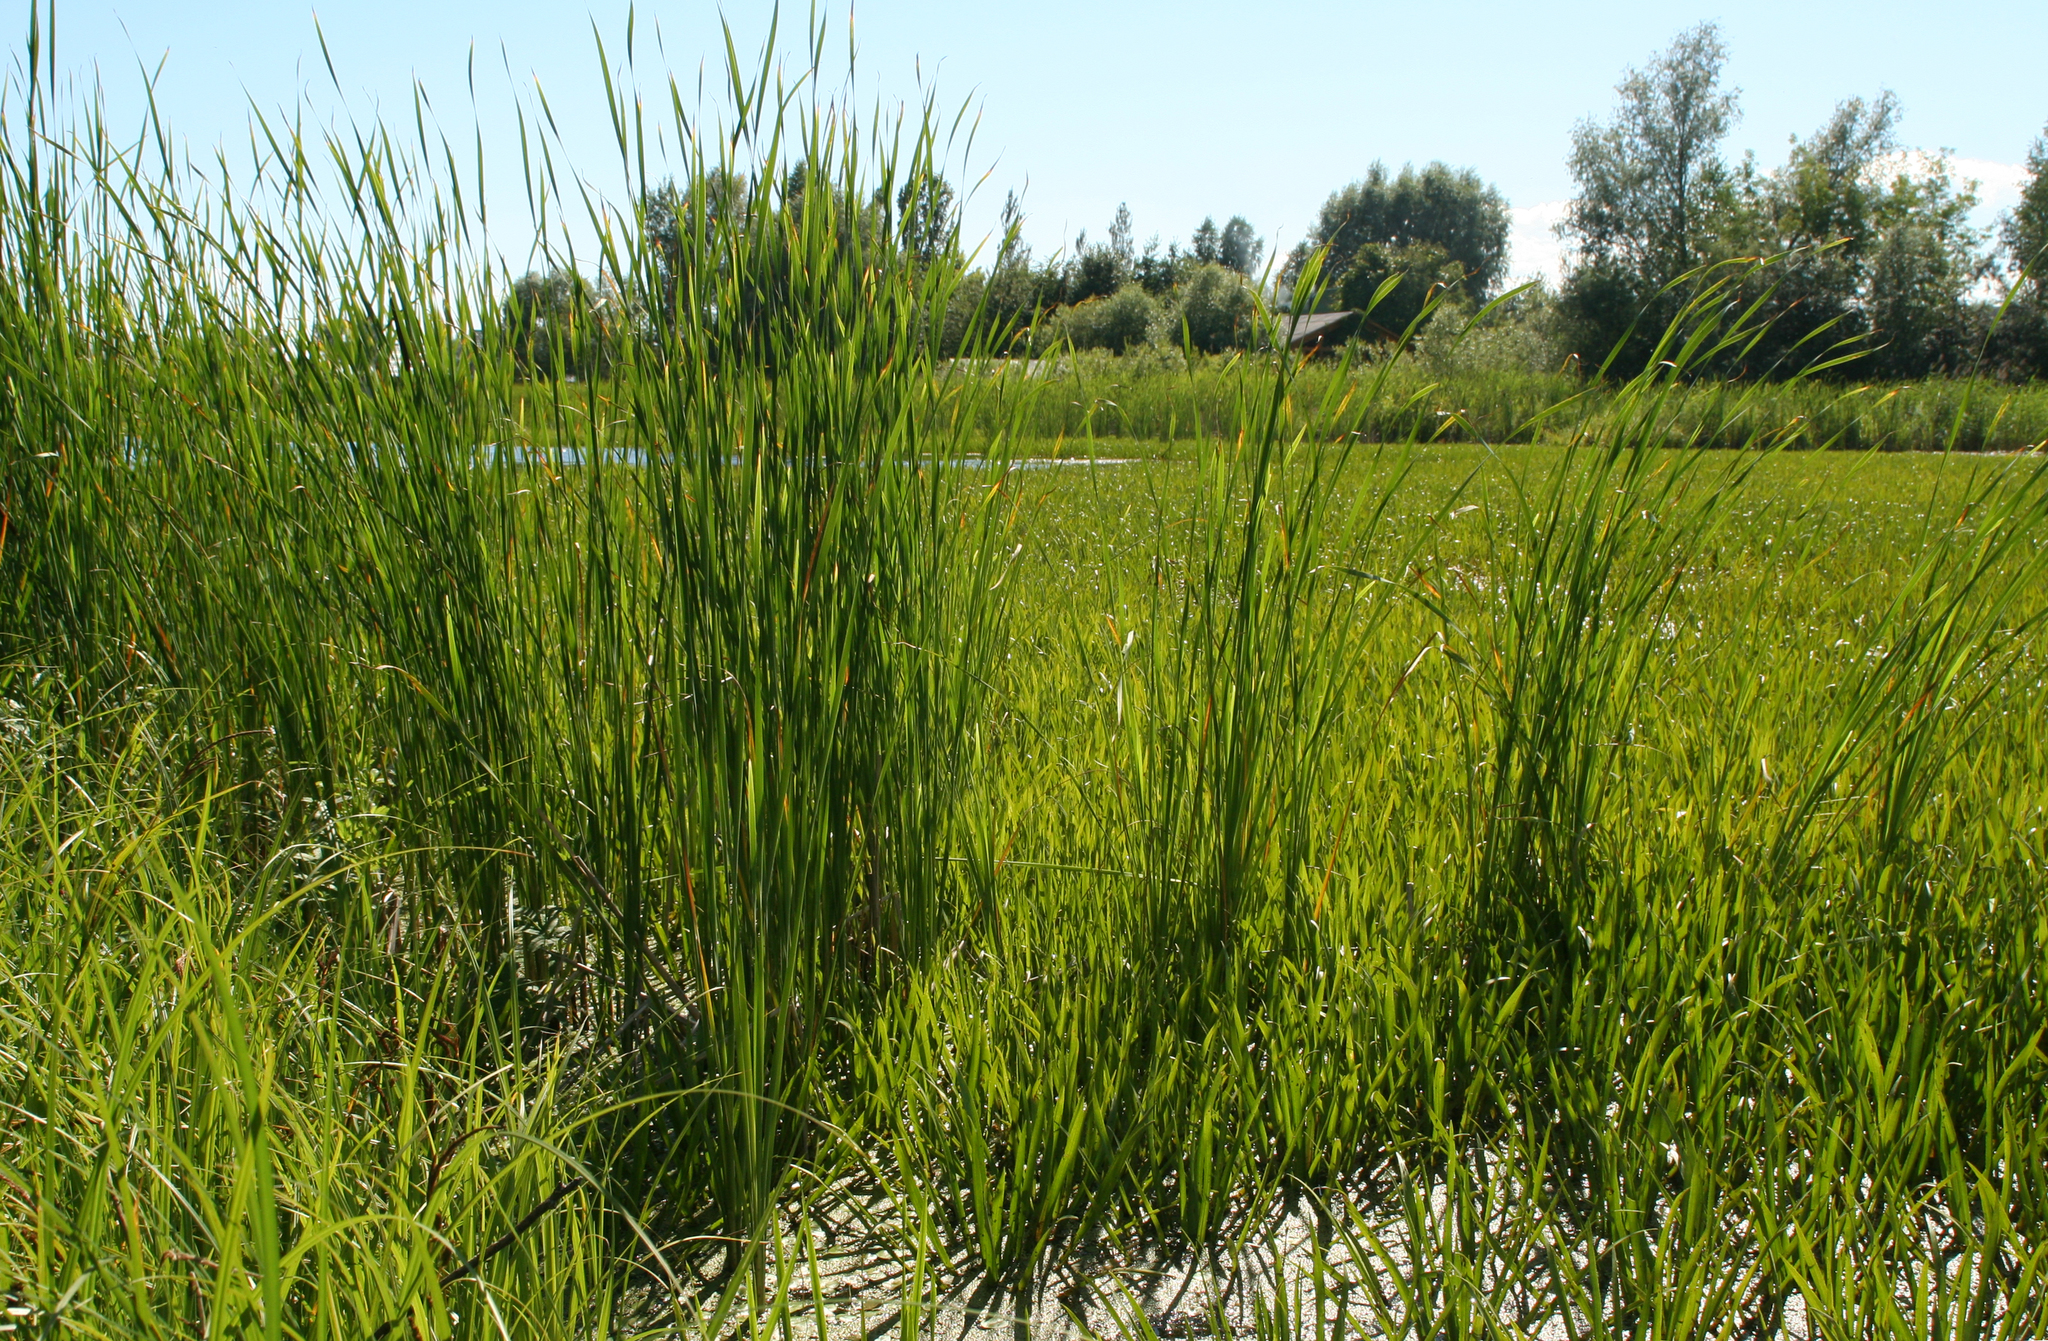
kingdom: Plantae
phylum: Tracheophyta
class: Liliopsida
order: Poales
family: Typhaceae
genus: Typha
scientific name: Typha angustifolia
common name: Lesser bulrush
